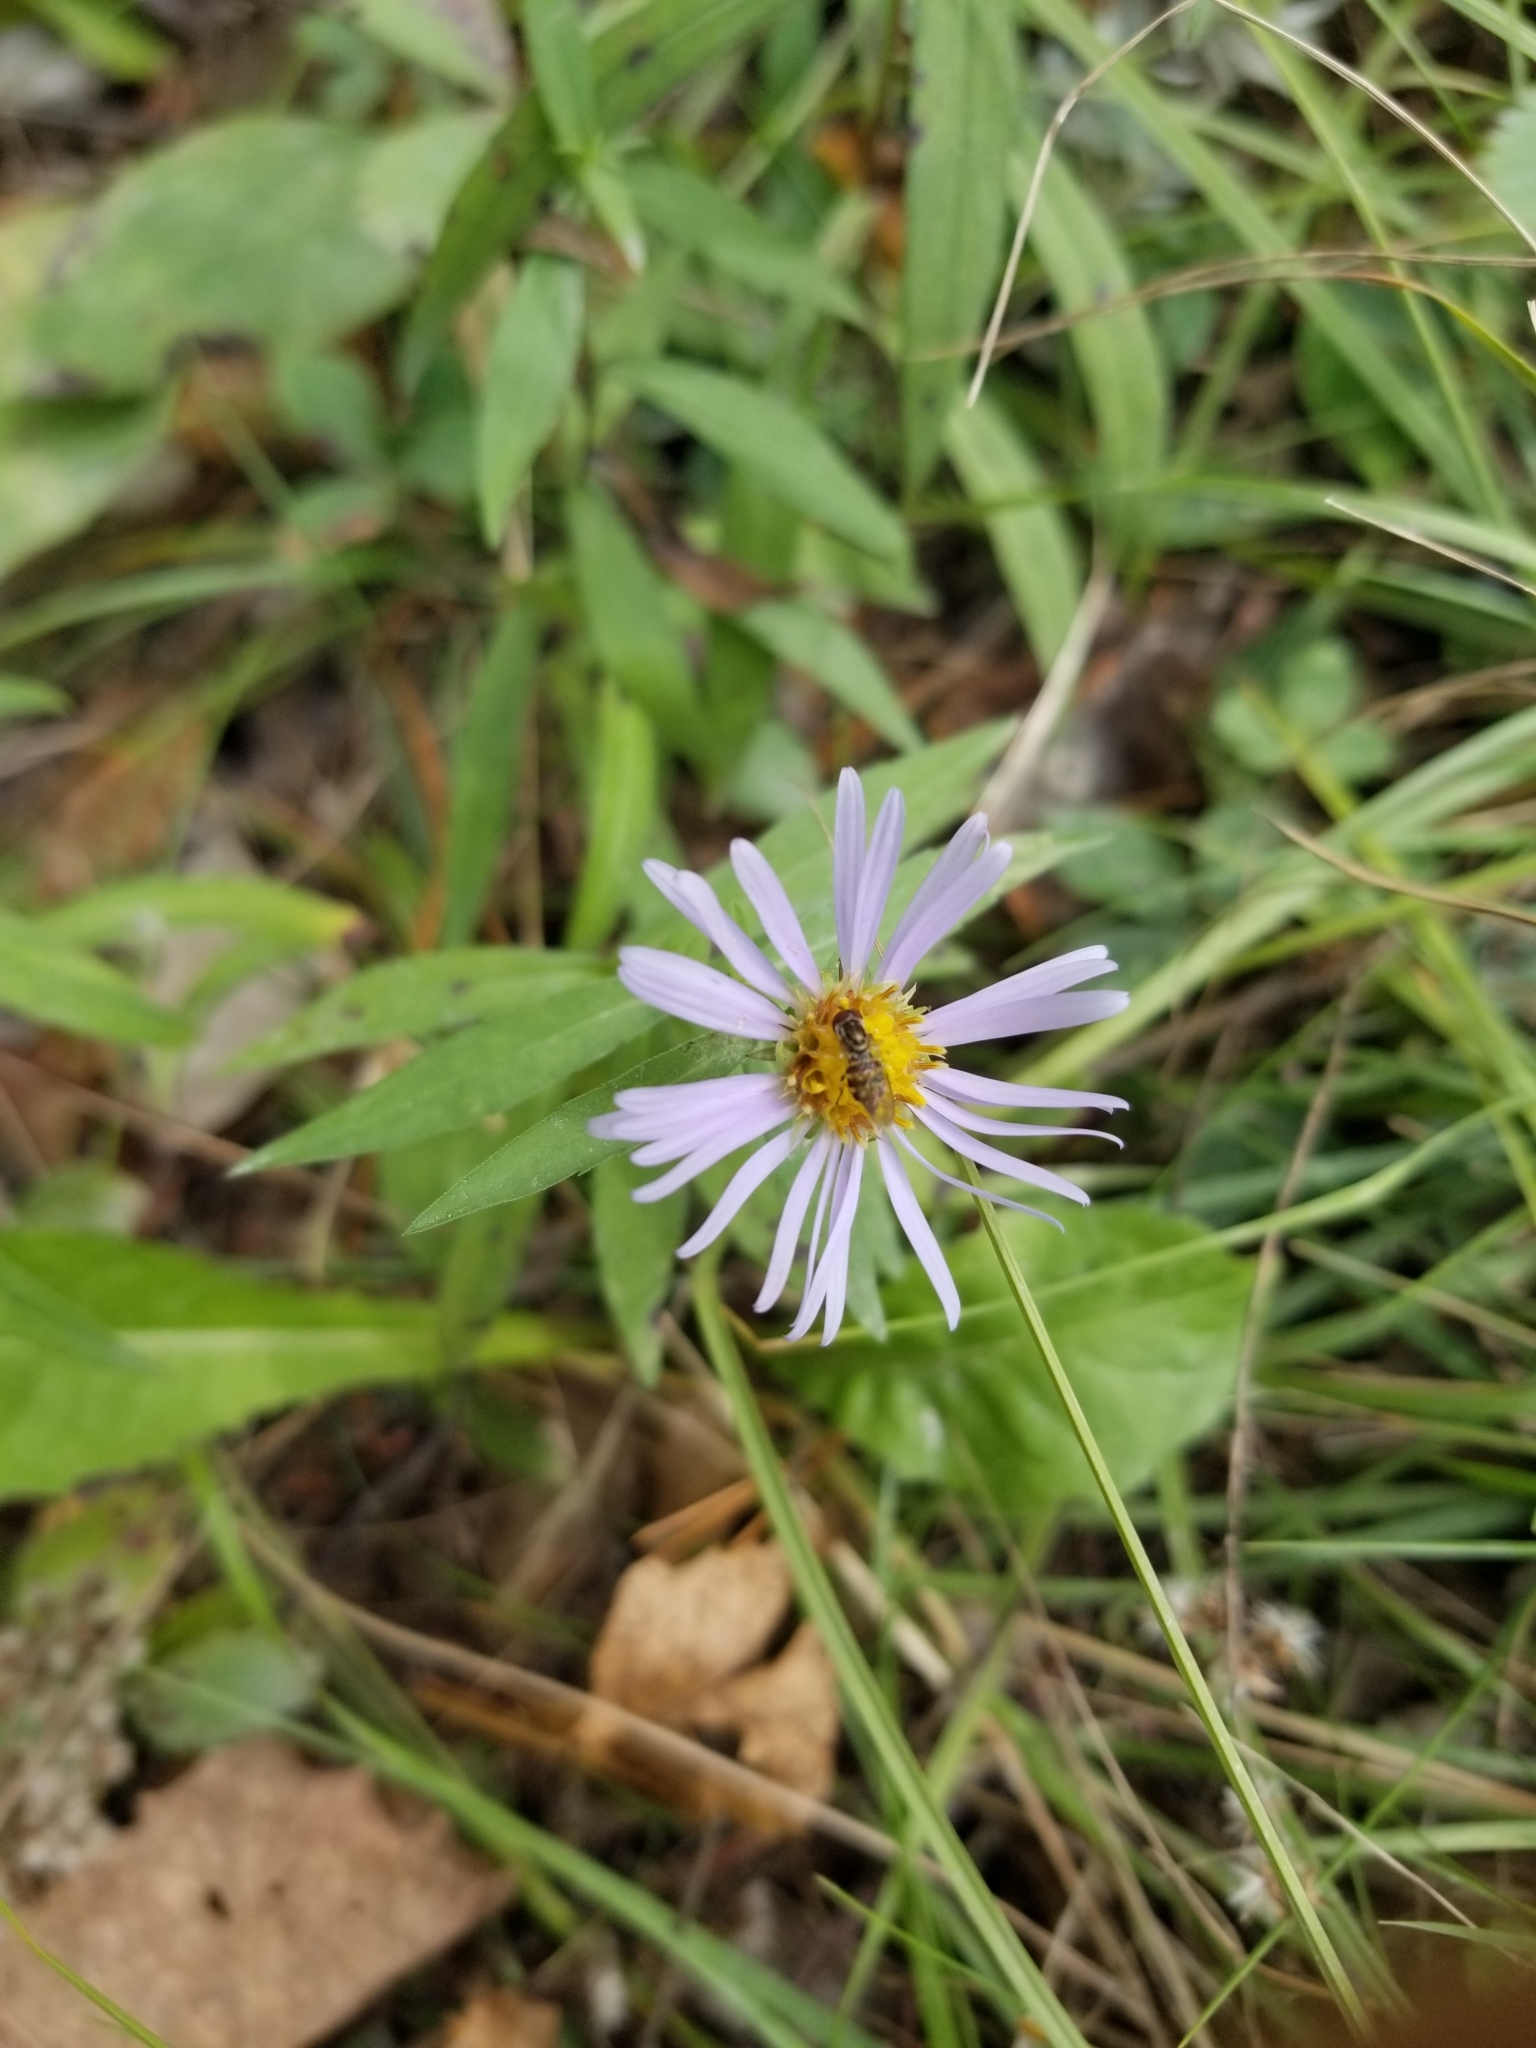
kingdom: Animalia
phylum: Arthropoda
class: Insecta
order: Diptera
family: Syrphidae
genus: Toxomerus
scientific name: Toxomerus geminatus
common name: Eastern calligrapher
